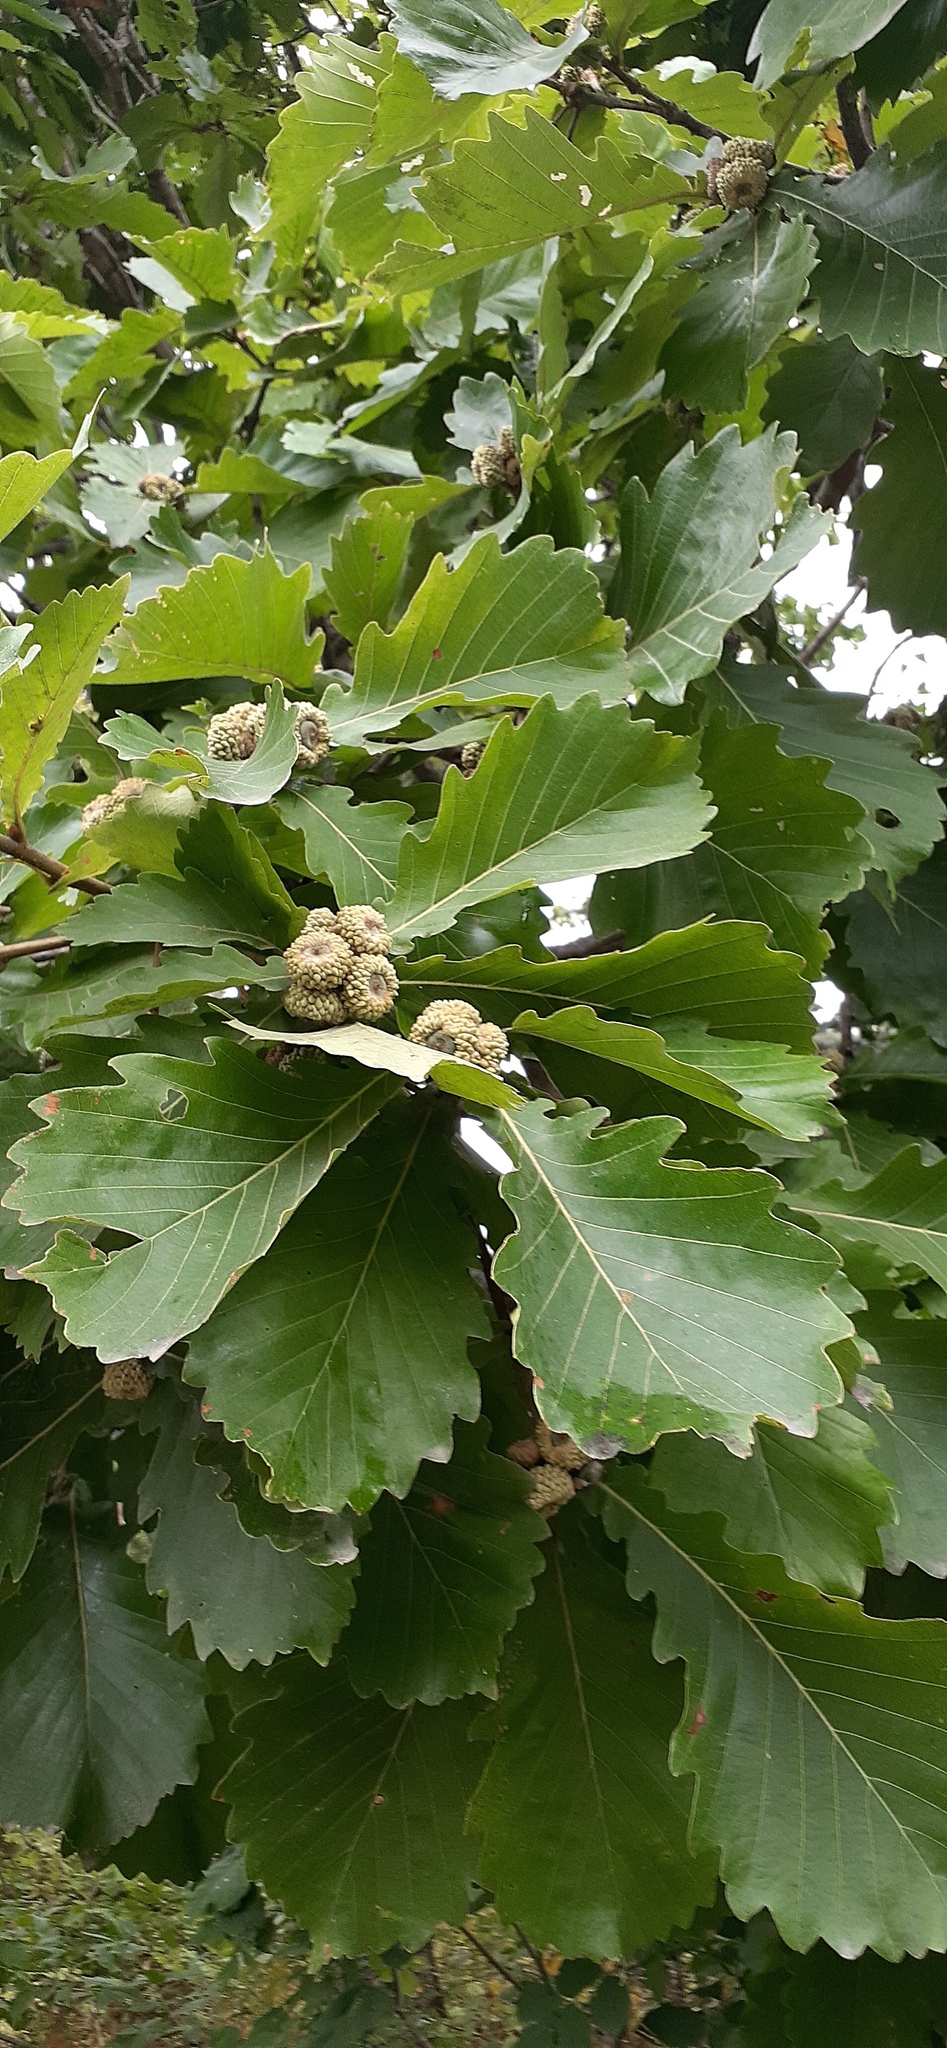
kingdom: Plantae
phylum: Tracheophyta
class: Magnoliopsida
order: Fagales
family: Fagaceae
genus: Quercus
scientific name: Quercus mongolica
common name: Mongolian oak
